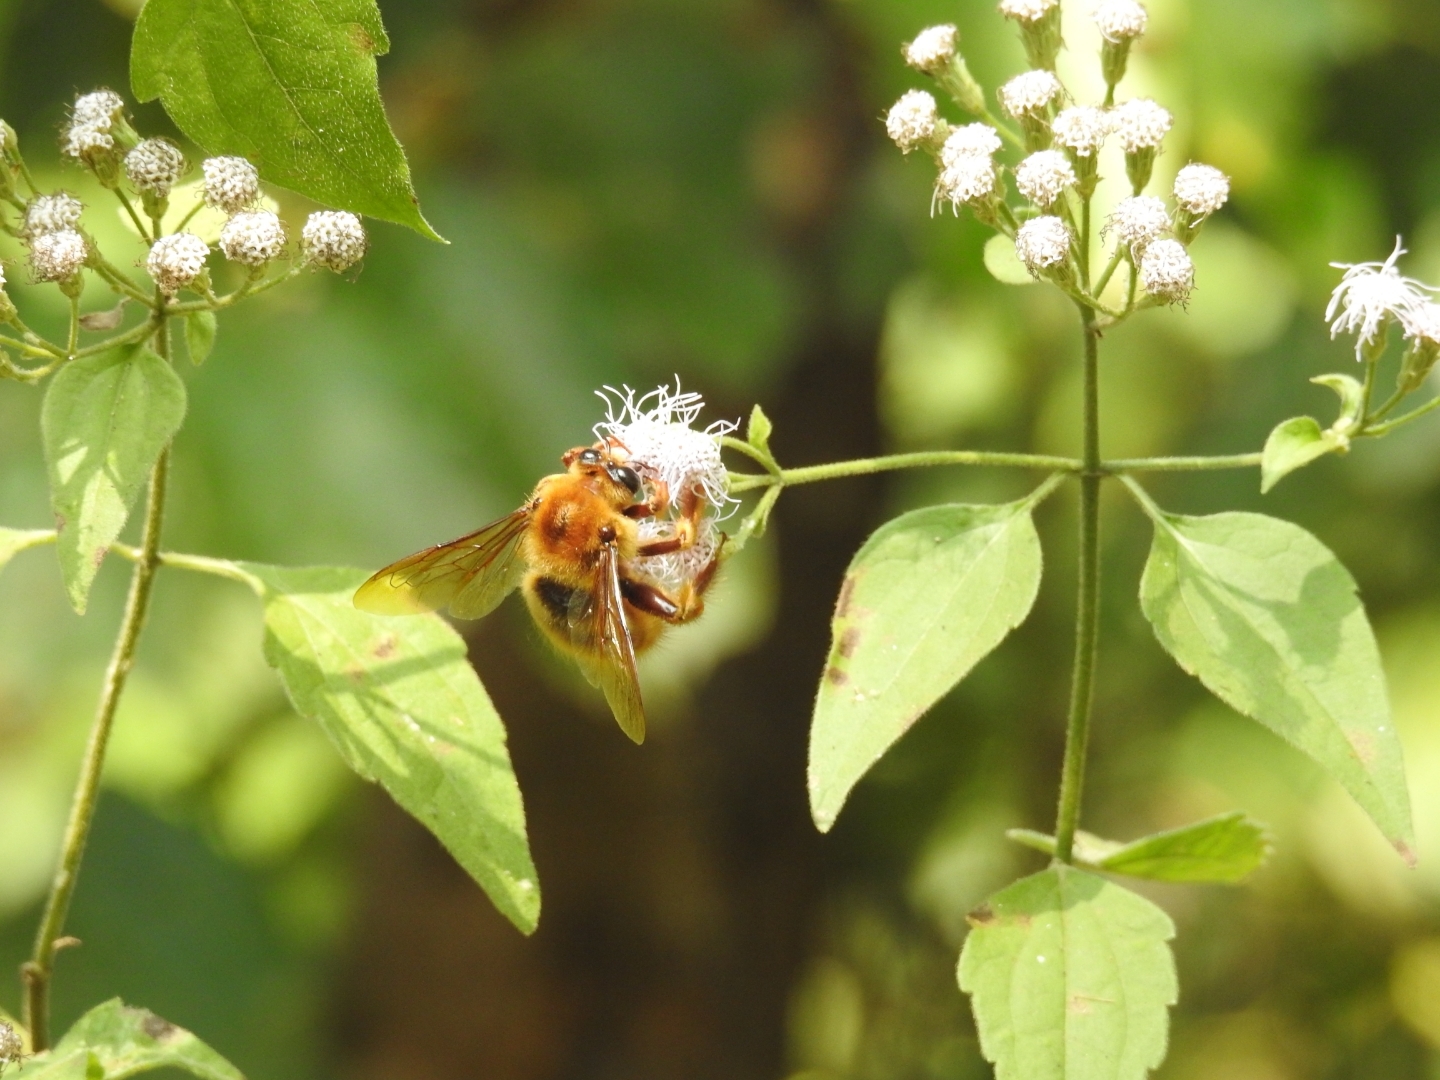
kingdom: Animalia
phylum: Arthropoda
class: Insecta
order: Hymenoptera
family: Apidae
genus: Xylocopa
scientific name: Xylocopa tranquebarica
